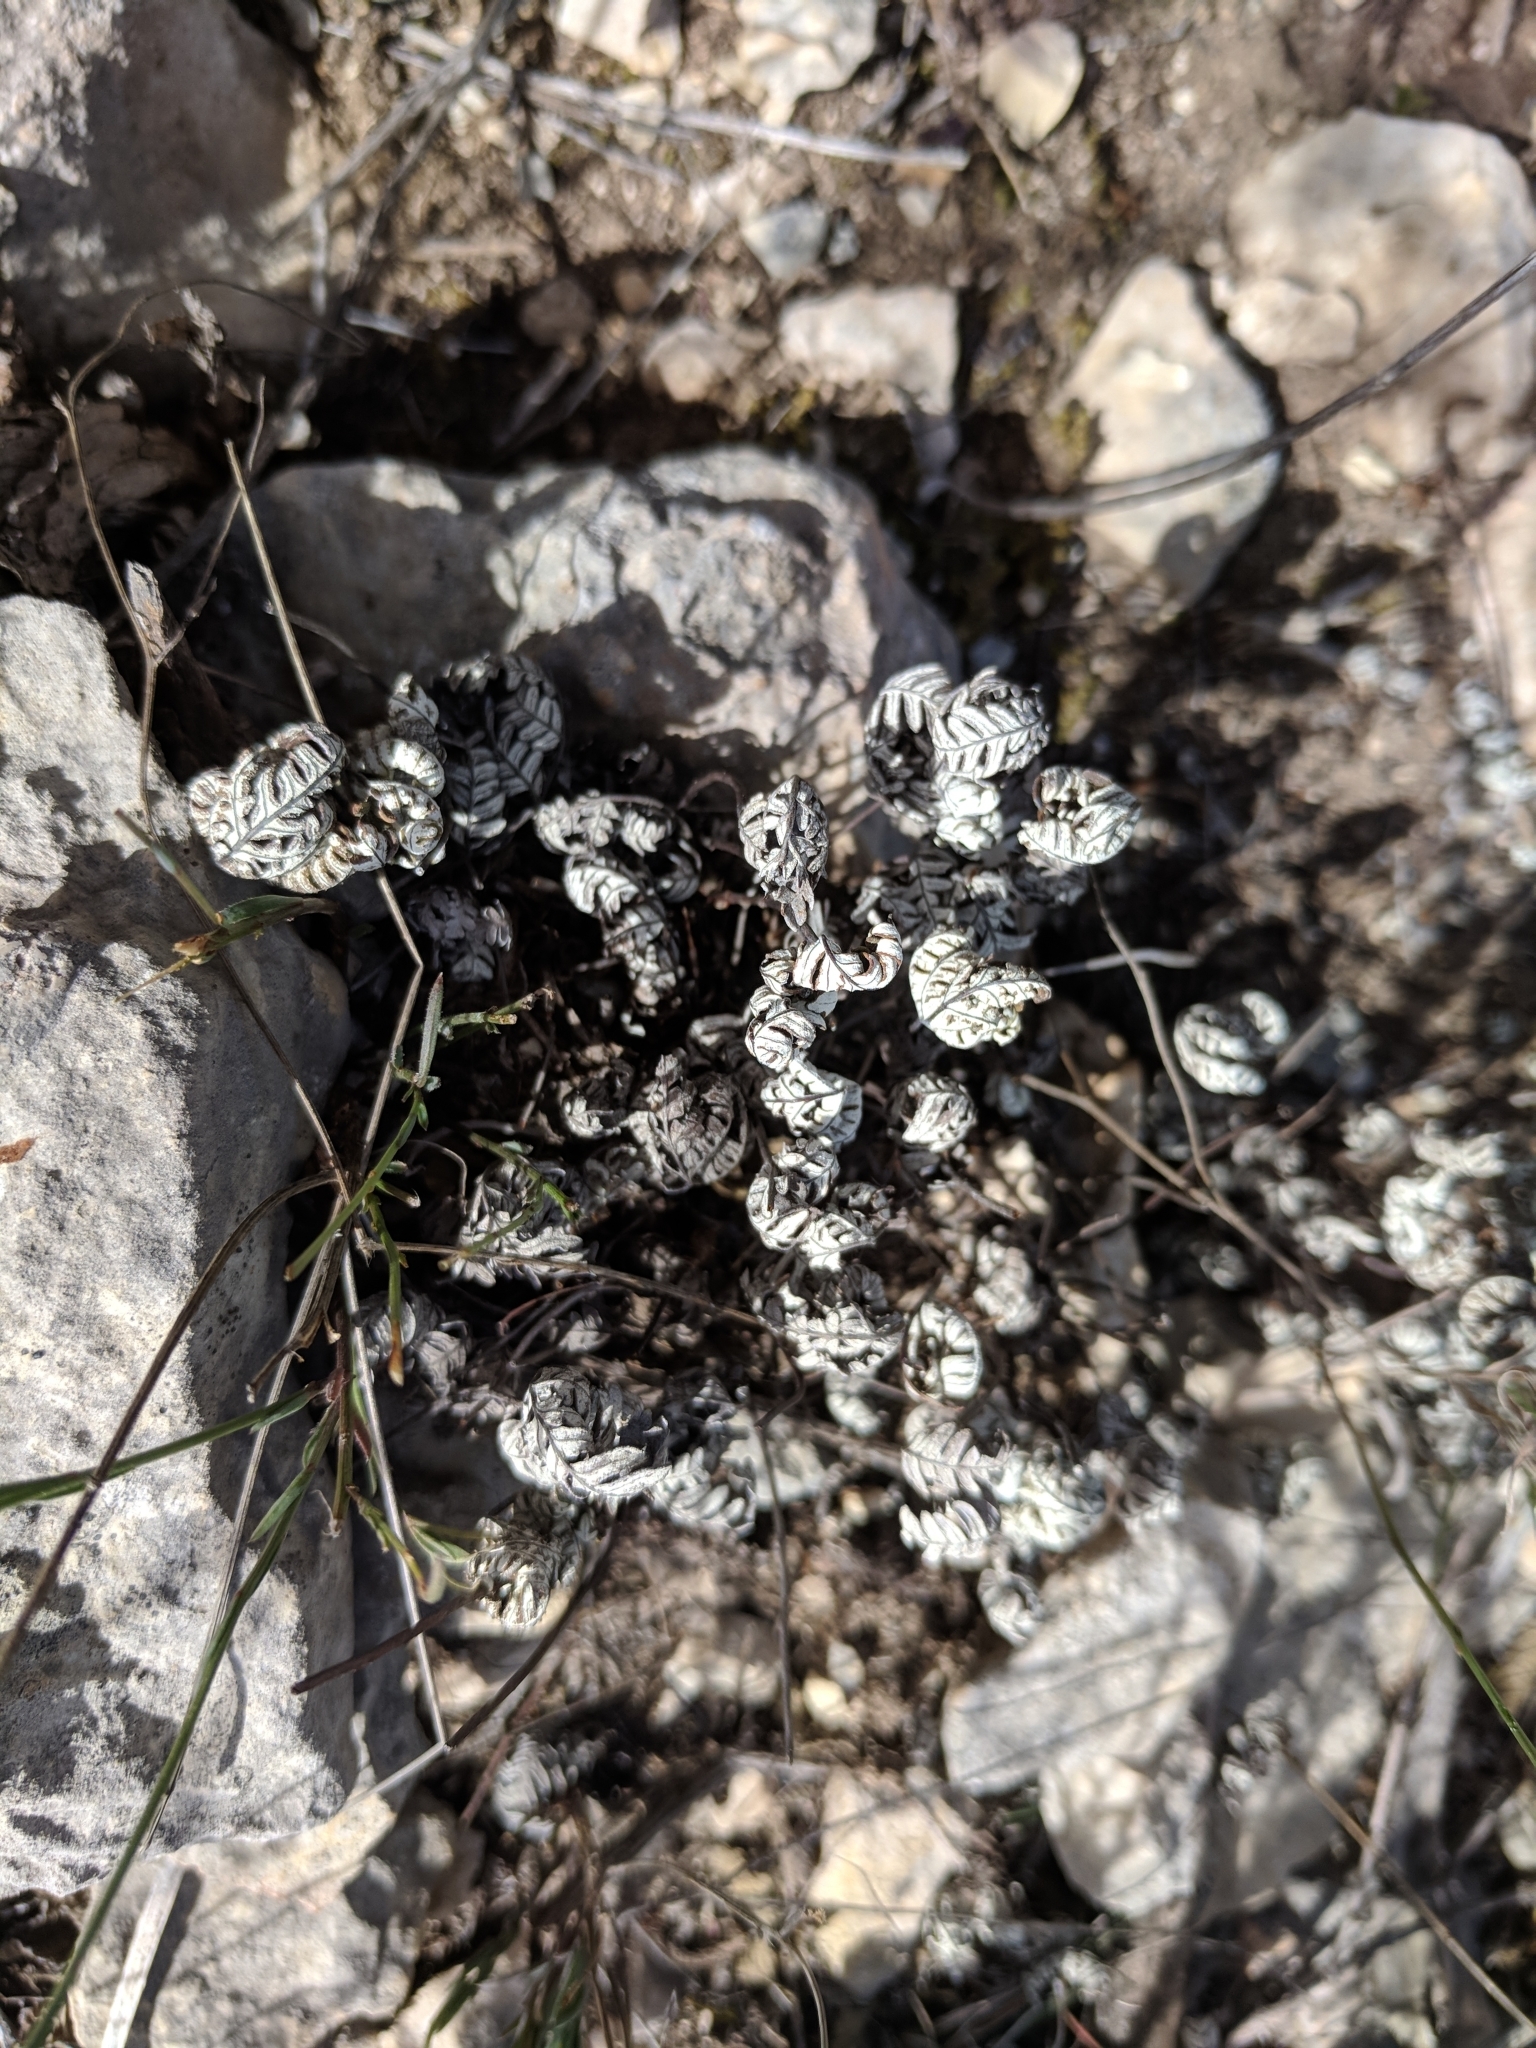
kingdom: Plantae
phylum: Tracheophyta
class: Polypodiopsida
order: Polypodiales
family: Pteridaceae
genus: Notholaena
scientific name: Notholaena candida
